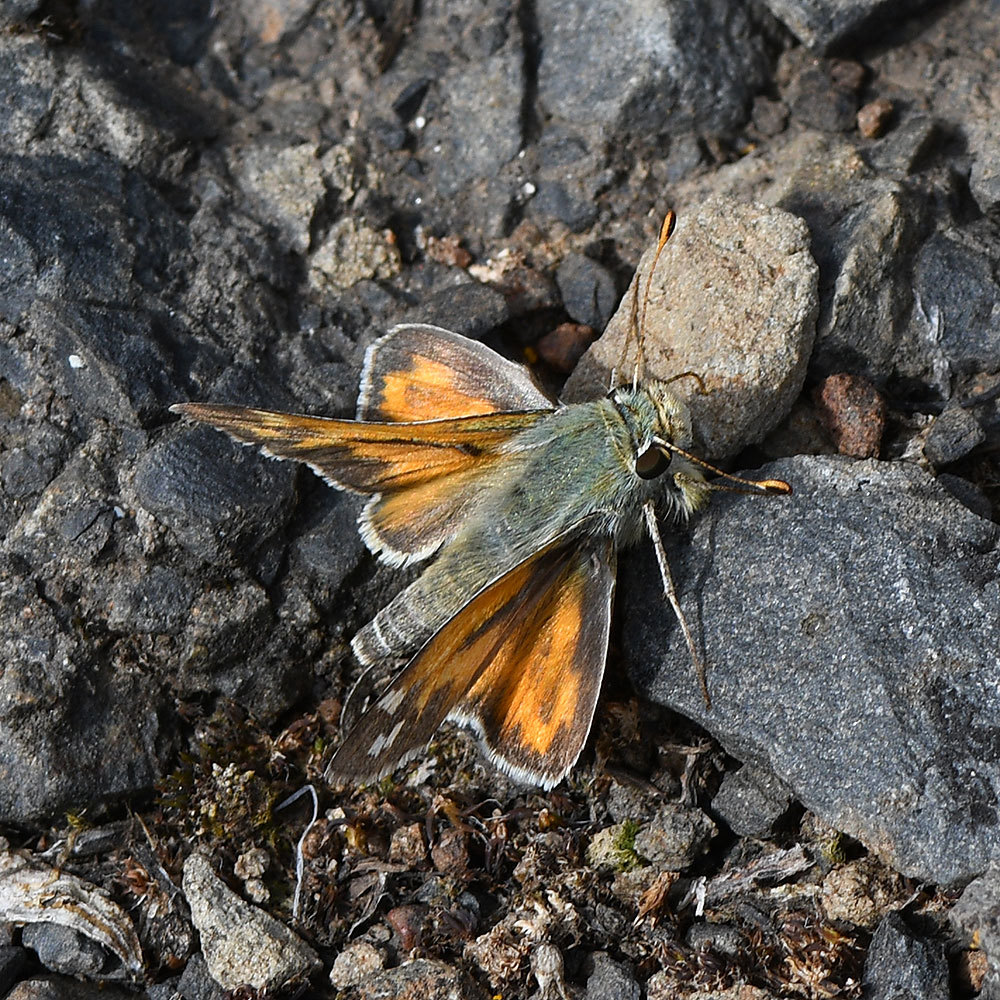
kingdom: Animalia
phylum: Arthropoda
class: Insecta
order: Lepidoptera
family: Hesperiidae
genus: Hesperia
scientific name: Hesperia juba
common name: Juba skipper
